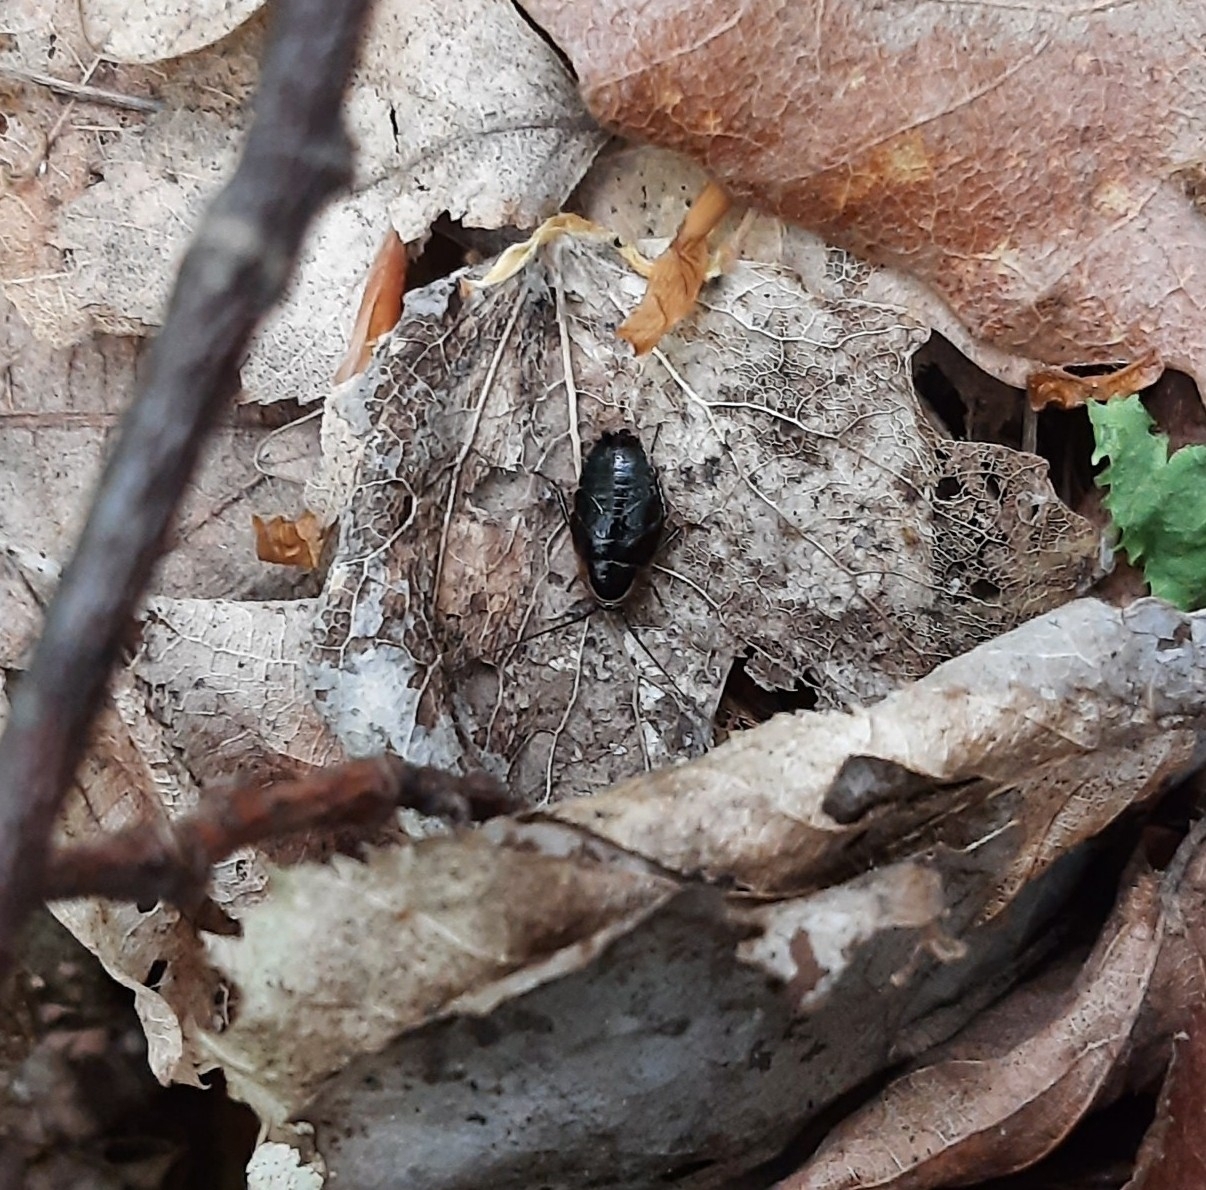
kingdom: Animalia
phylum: Arthropoda
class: Insecta
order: Blattodea
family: Ectobiidae
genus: Ectobius
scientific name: Ectobius sylvestris
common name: Forest cockroach
